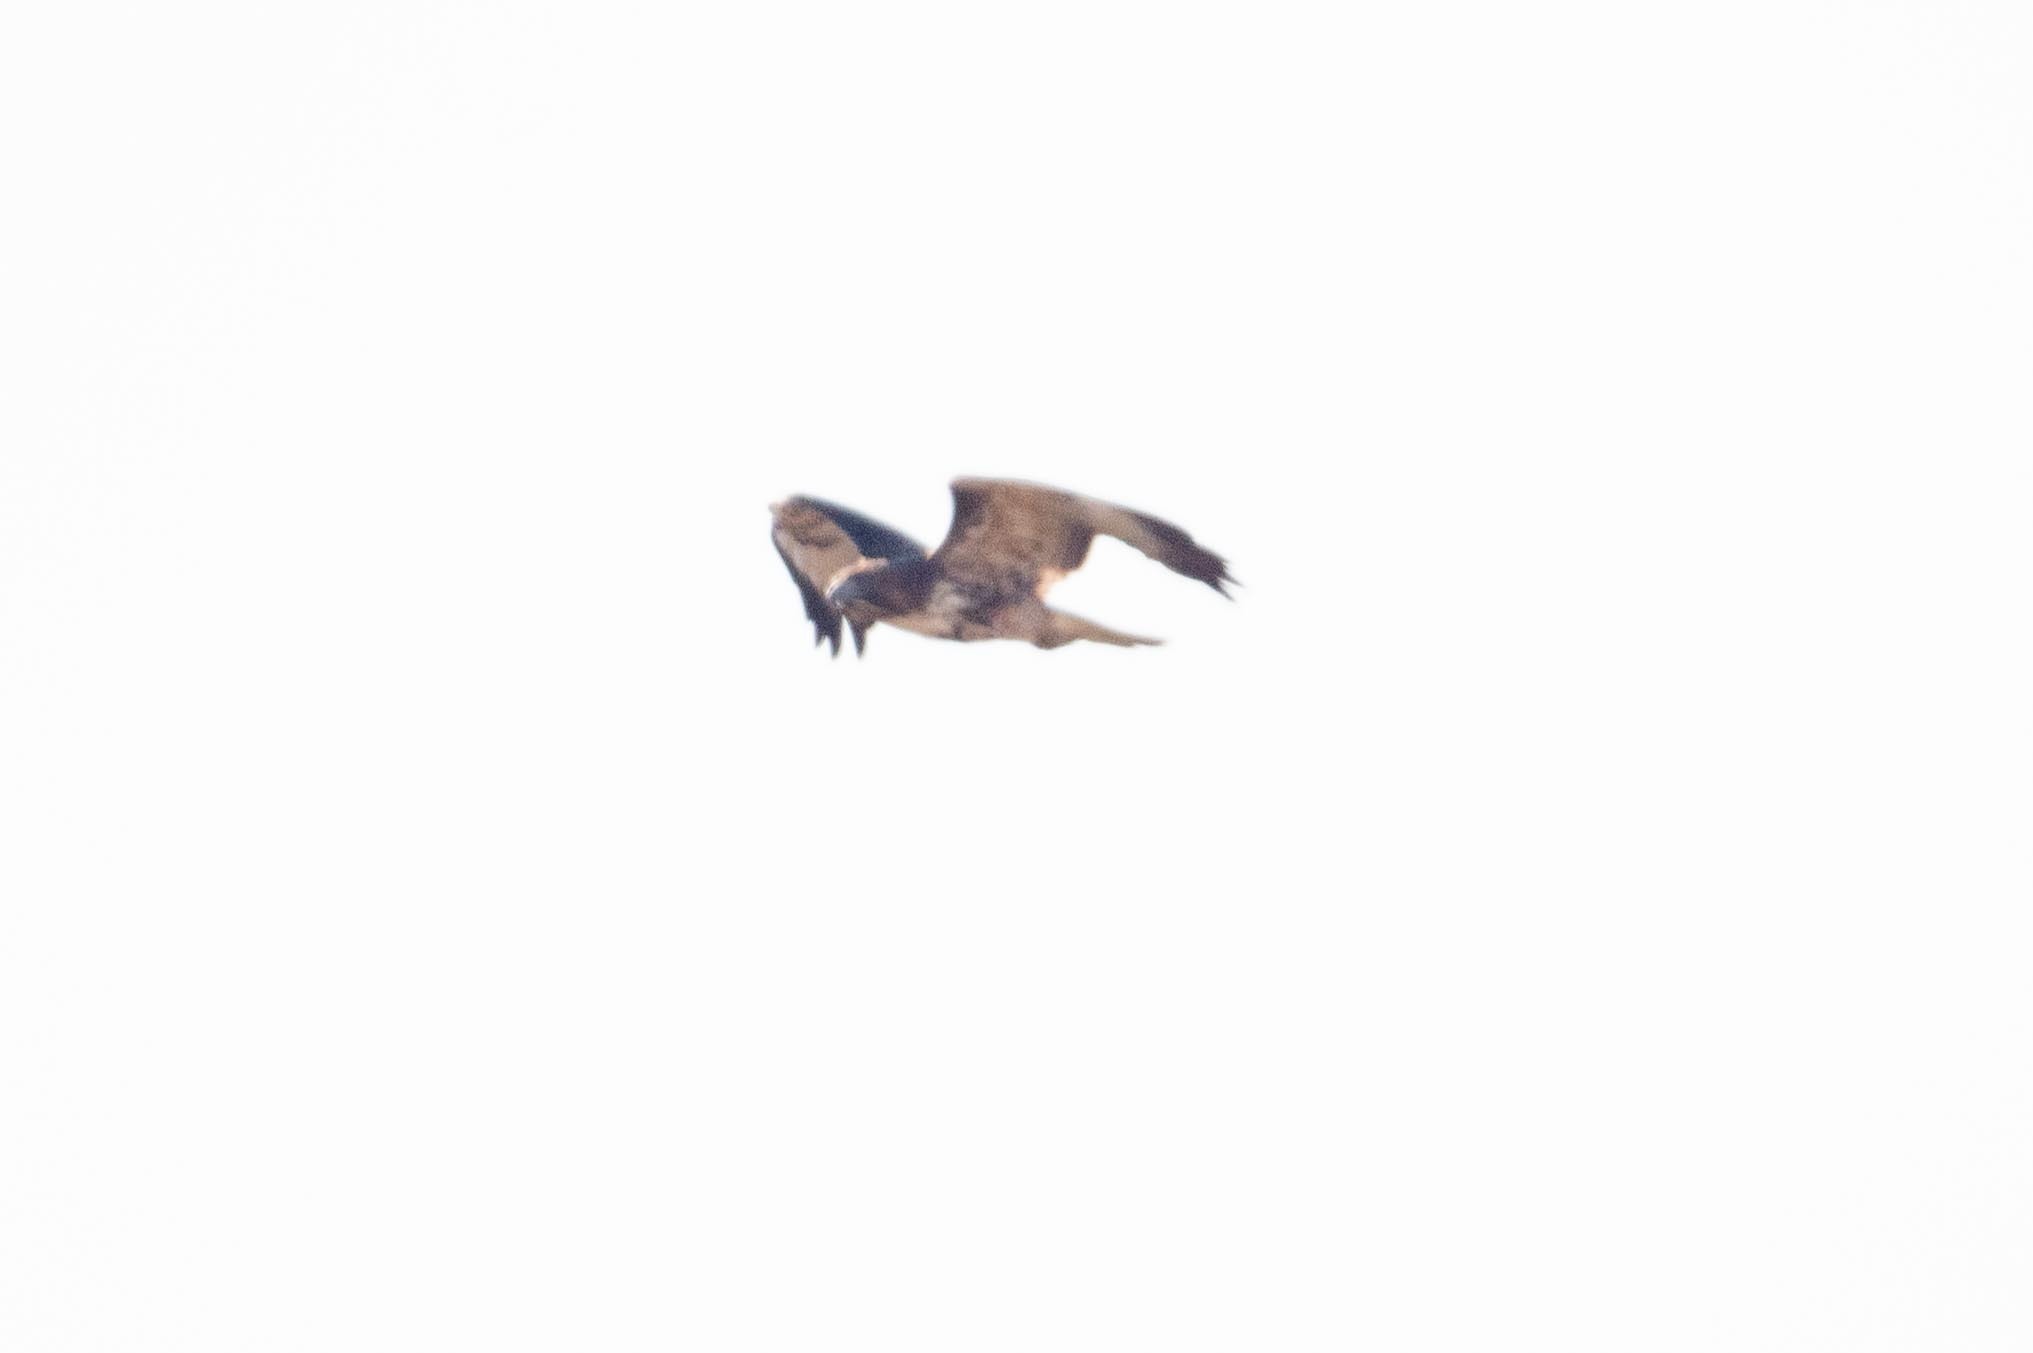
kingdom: Animalia
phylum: Chordata
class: Aves
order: Accipitriformes
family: Accipitridae
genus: Buteo
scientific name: Buteo jamaicensis
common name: Red-tailed hawk
